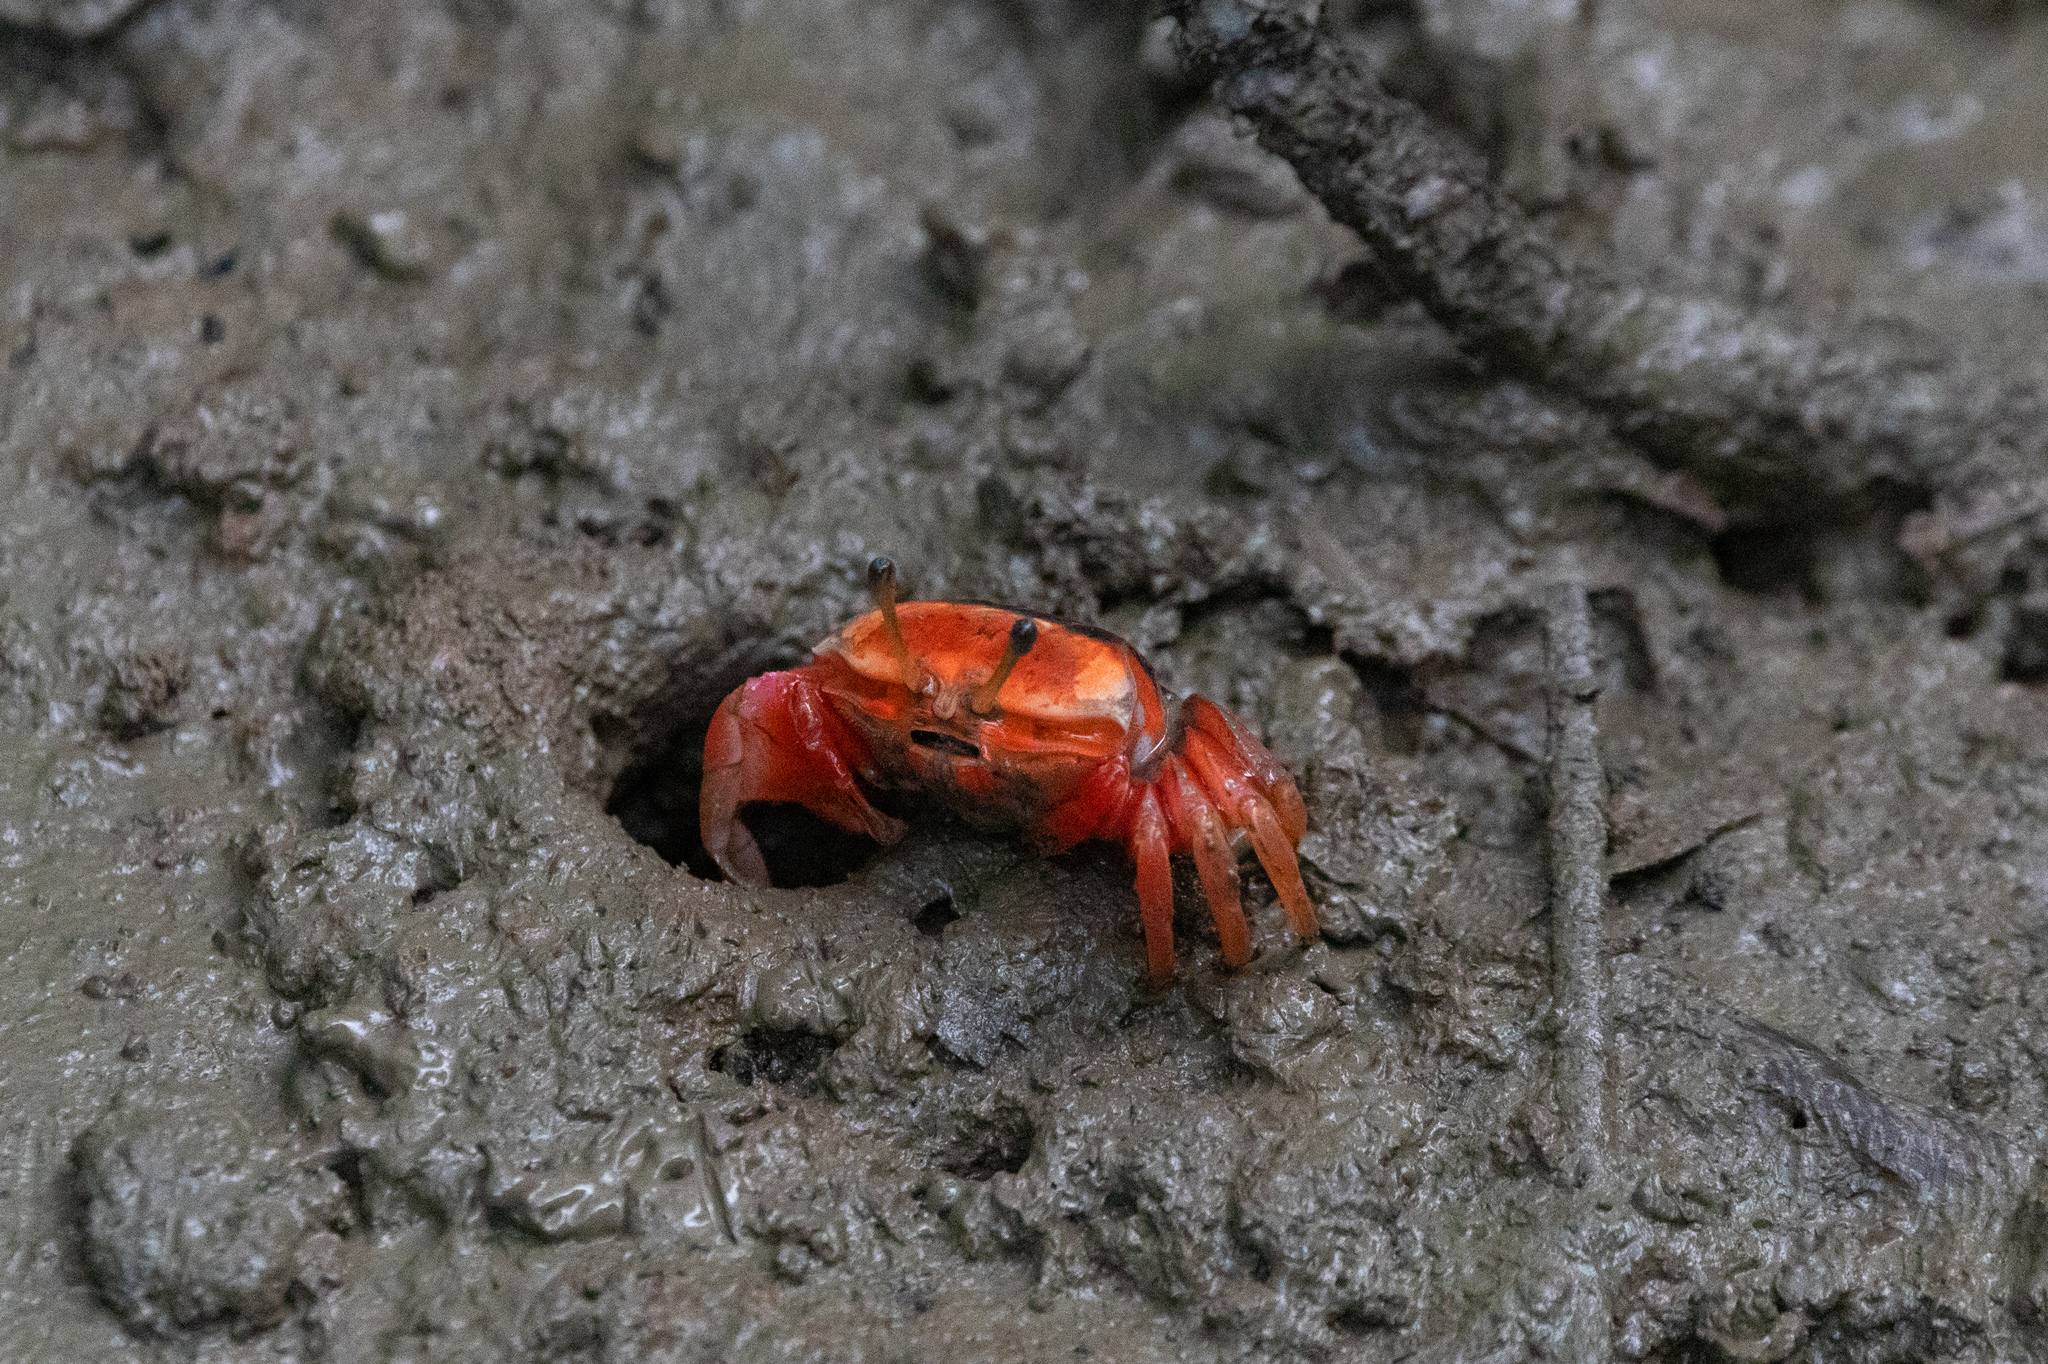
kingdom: Animalia
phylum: Arthropoda
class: Malacostraca
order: Decapoda
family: Ocypodidae
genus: Tubuca
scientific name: Tubuca arcuata
